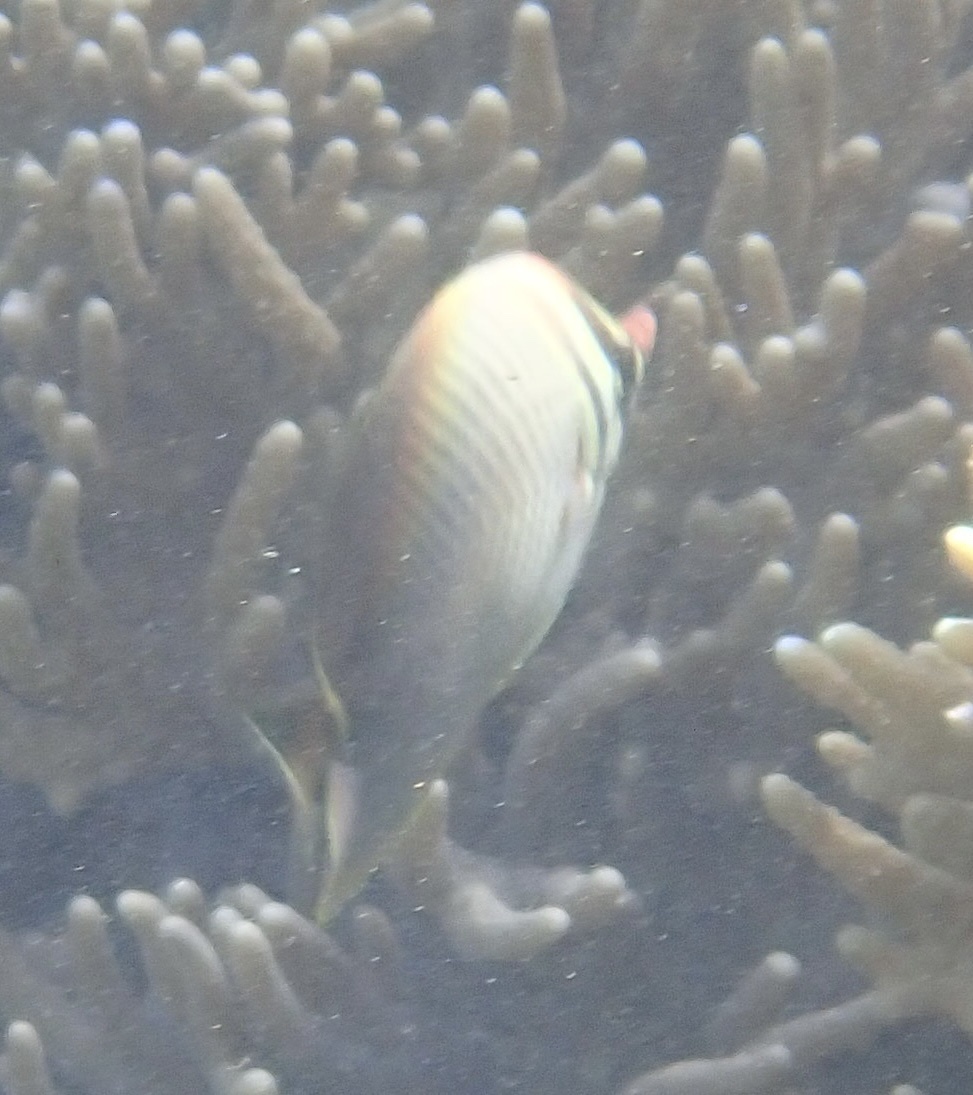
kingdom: Animalia
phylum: Chordata
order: Perciformes
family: Chaetodontidae
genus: Chaetodon
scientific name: Chaetodon baronessa
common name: Triangular butterflyfish
